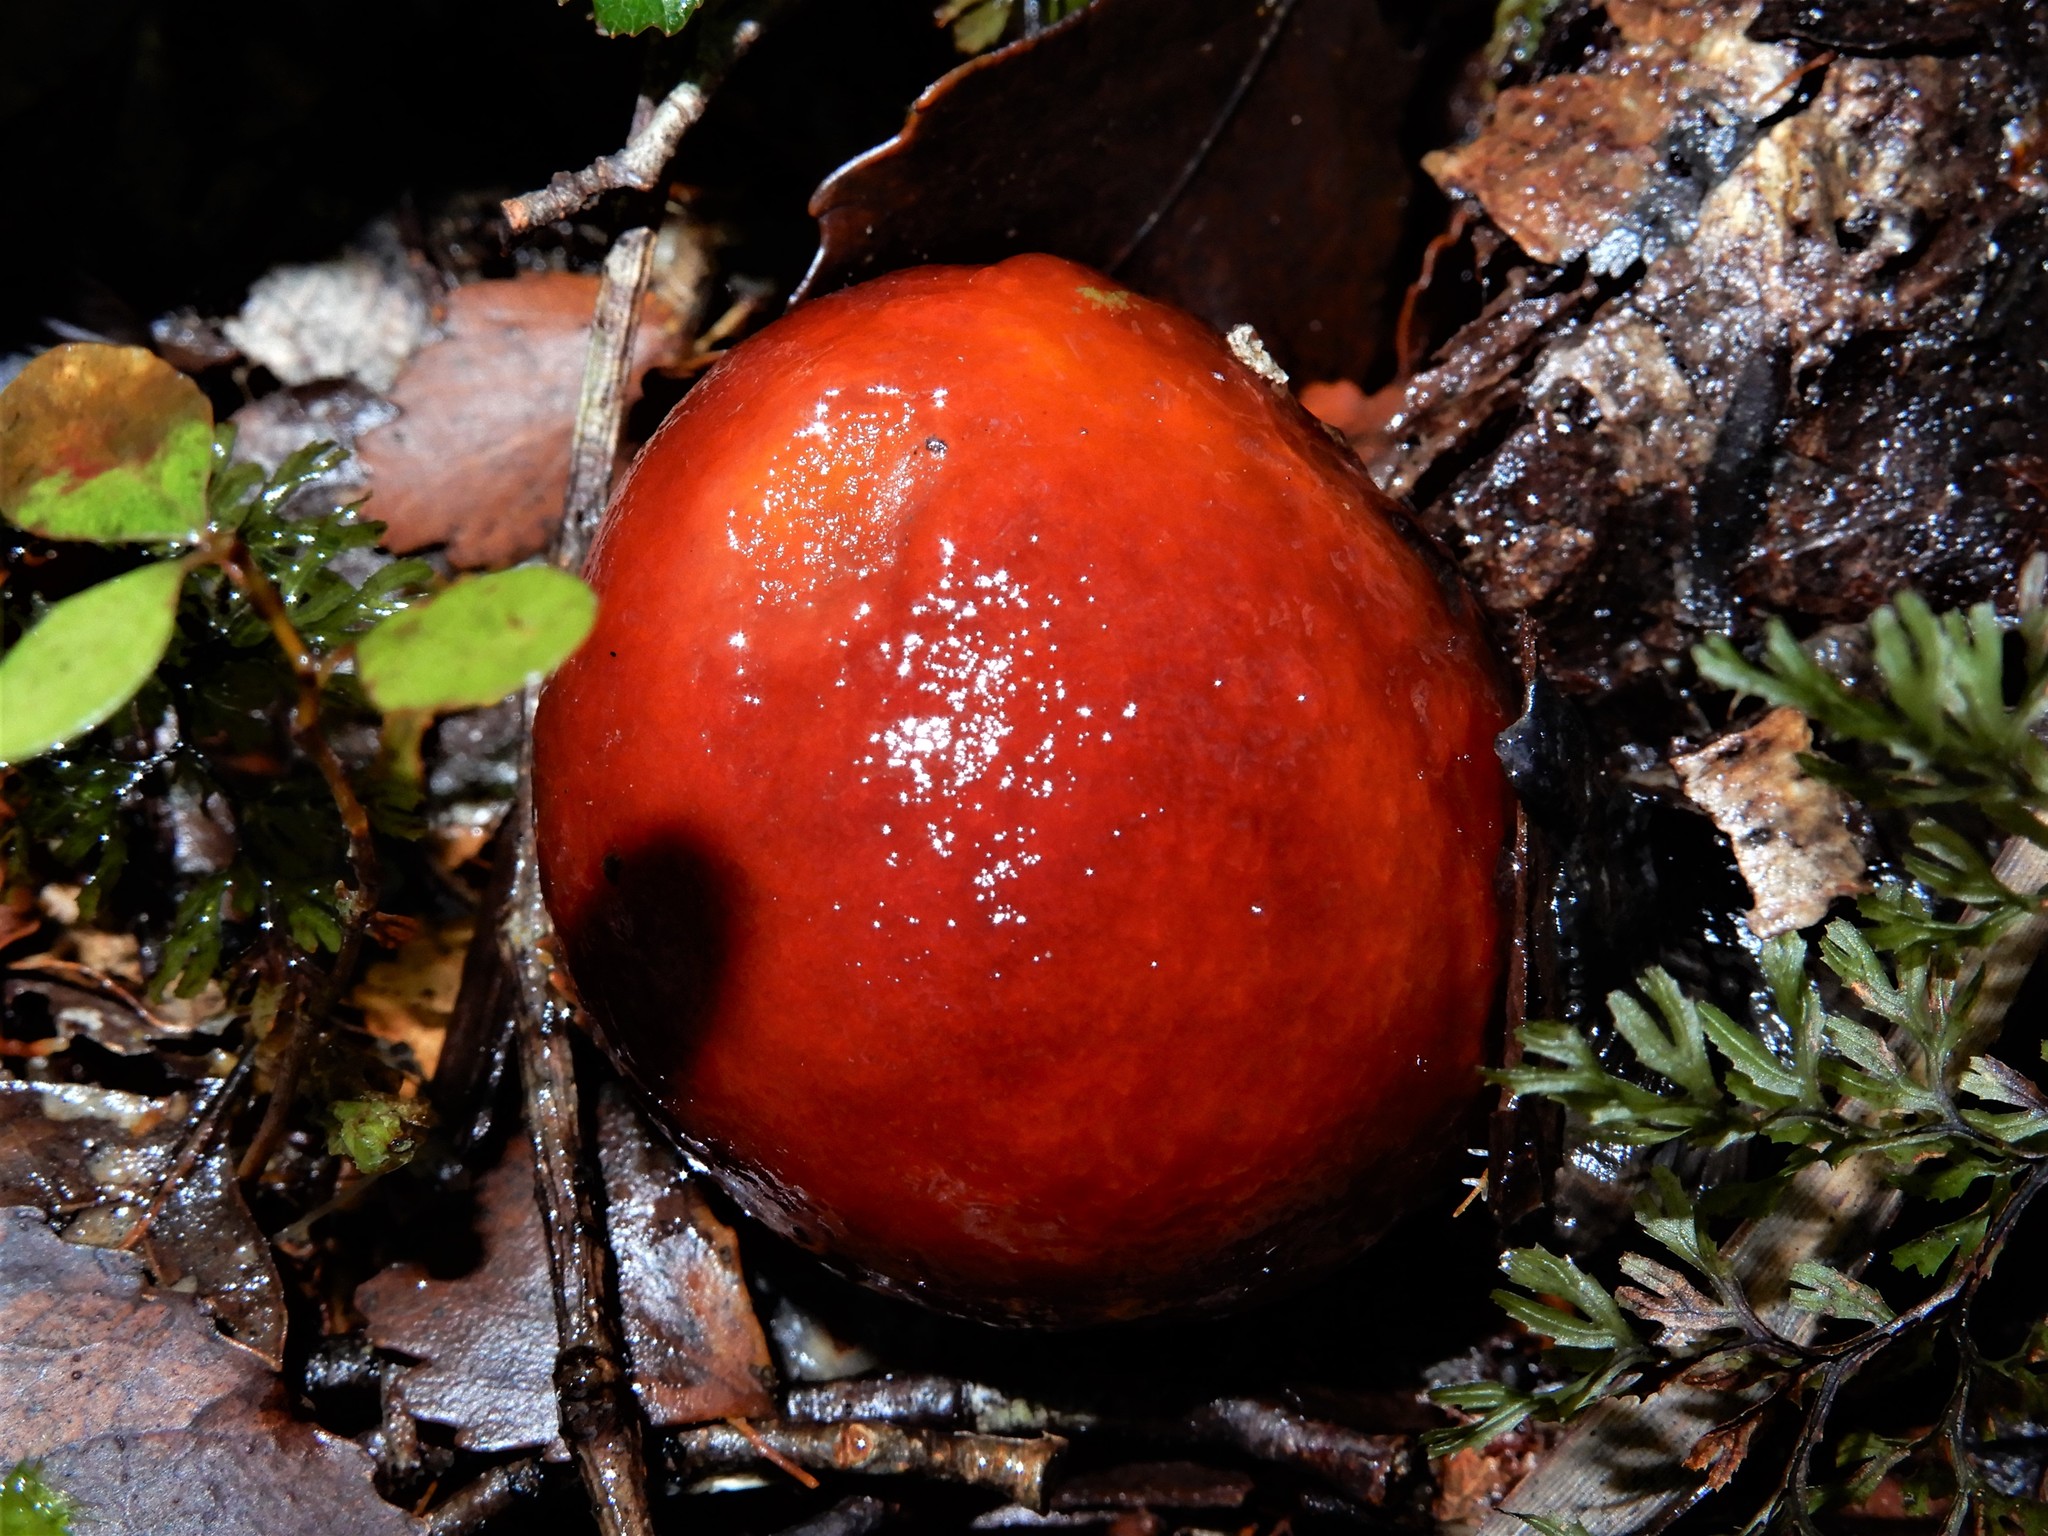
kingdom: Fungi
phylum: Basidiomycota
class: Agaricomycetes
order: Agaricales
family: Cortinariaceae
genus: Cortinarius
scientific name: Cortinarius beeverorum
